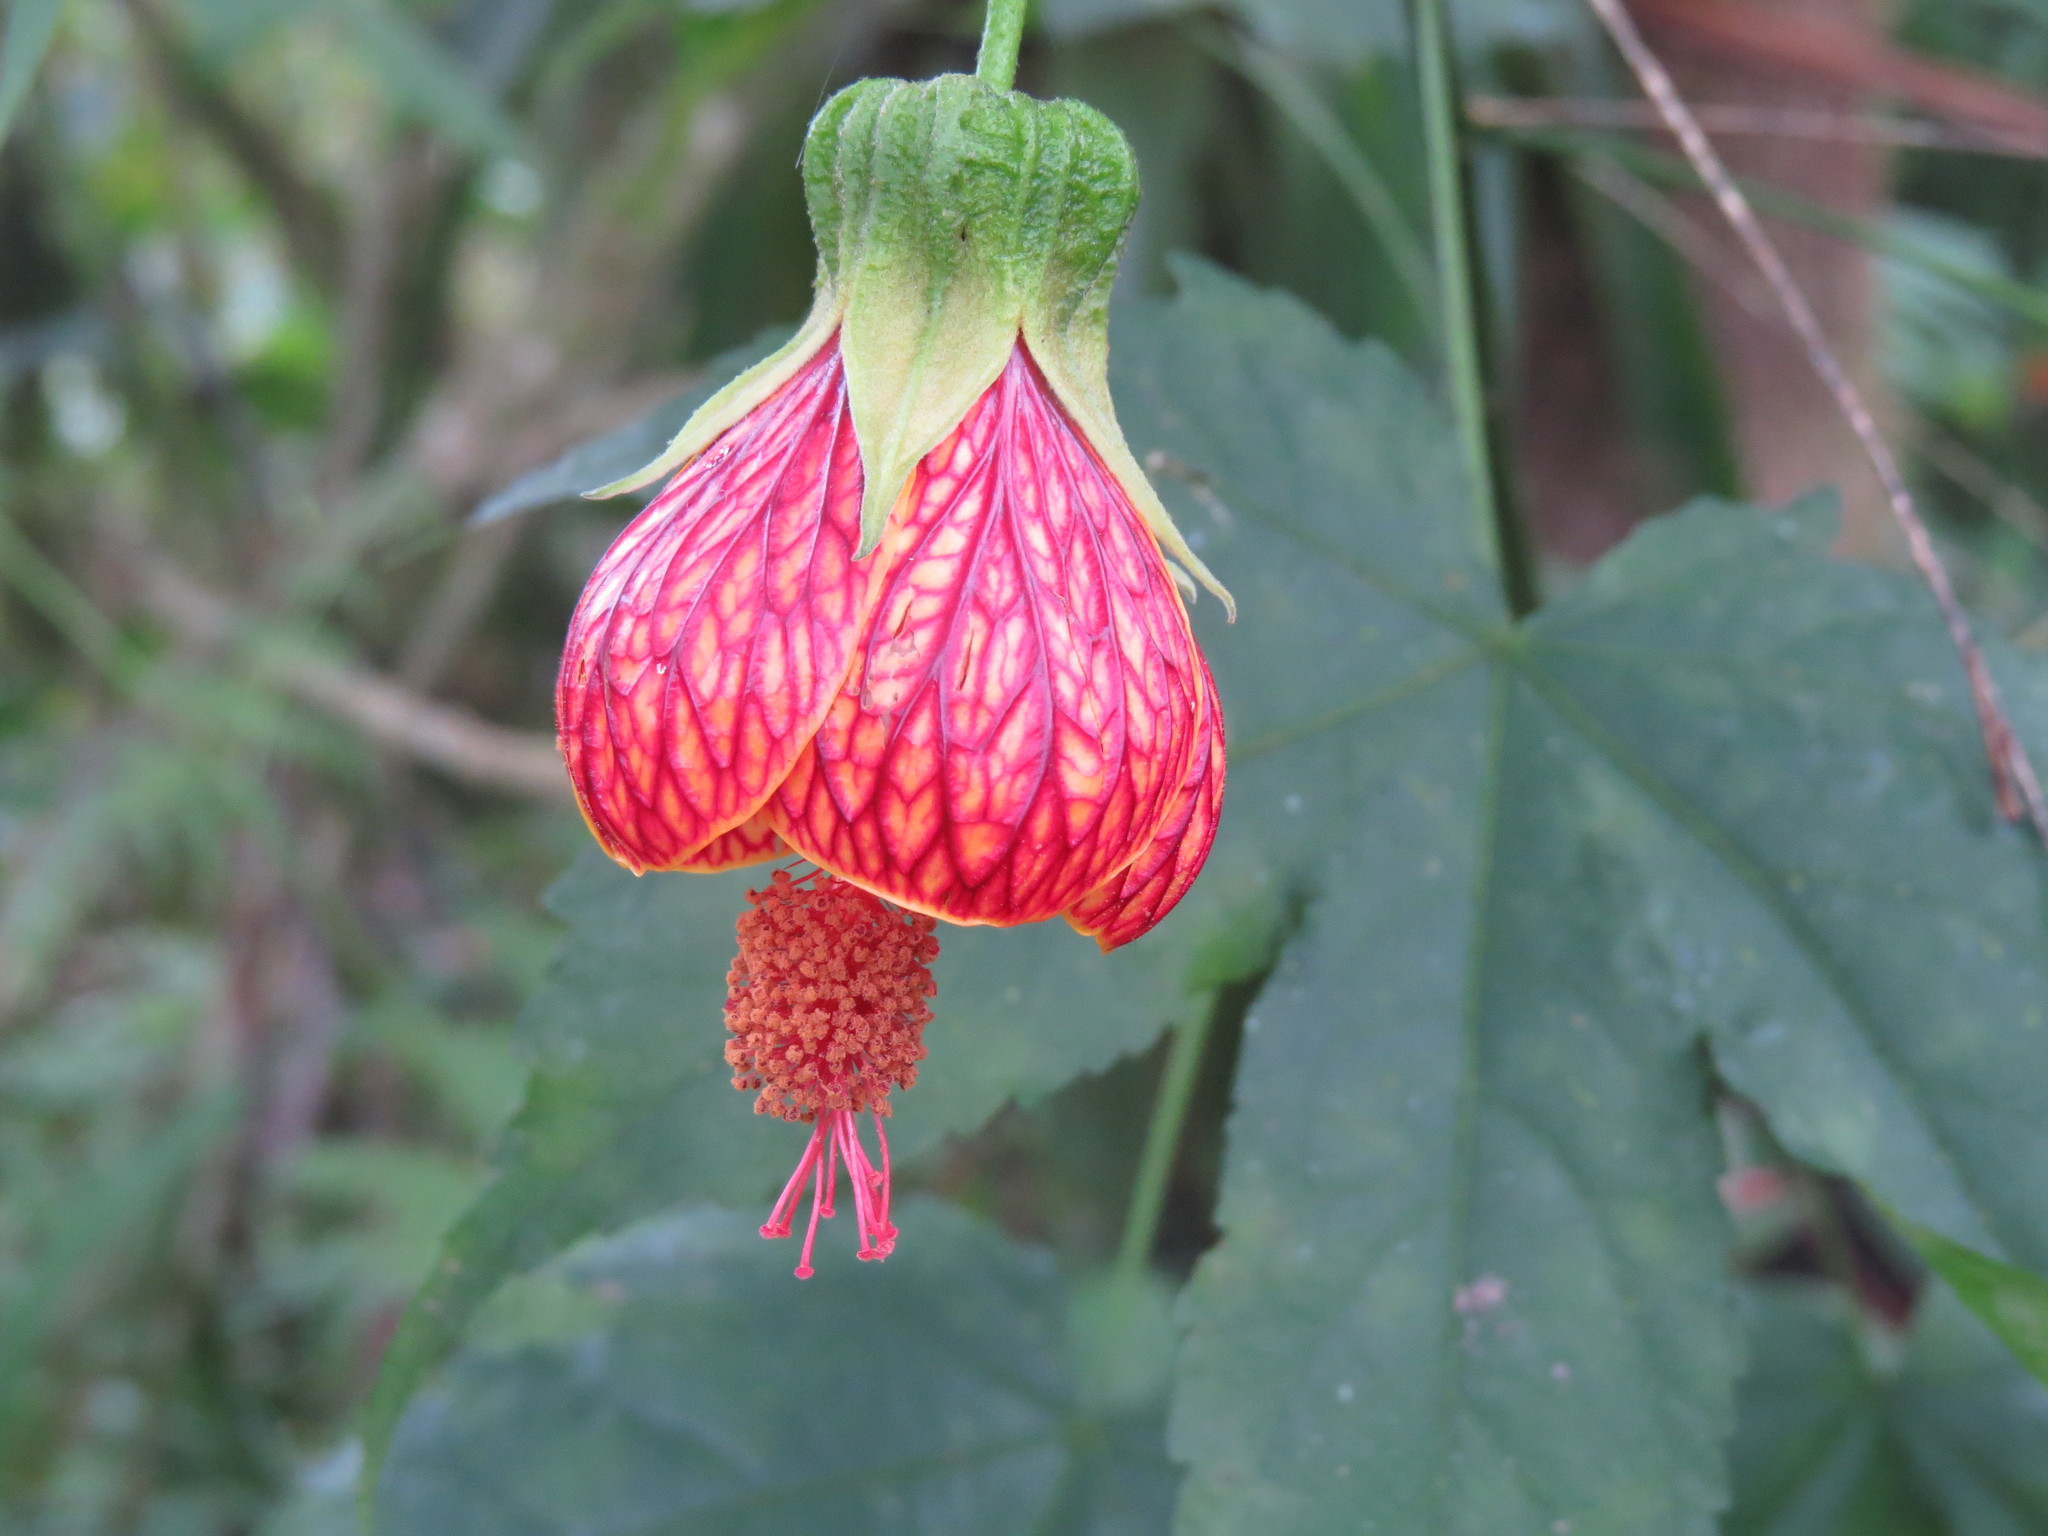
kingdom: Plantae
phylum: Tracheophyta
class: Magnoliopsida
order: Malvales
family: Malvaceae
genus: Callianthe
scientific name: Callianthe picta
